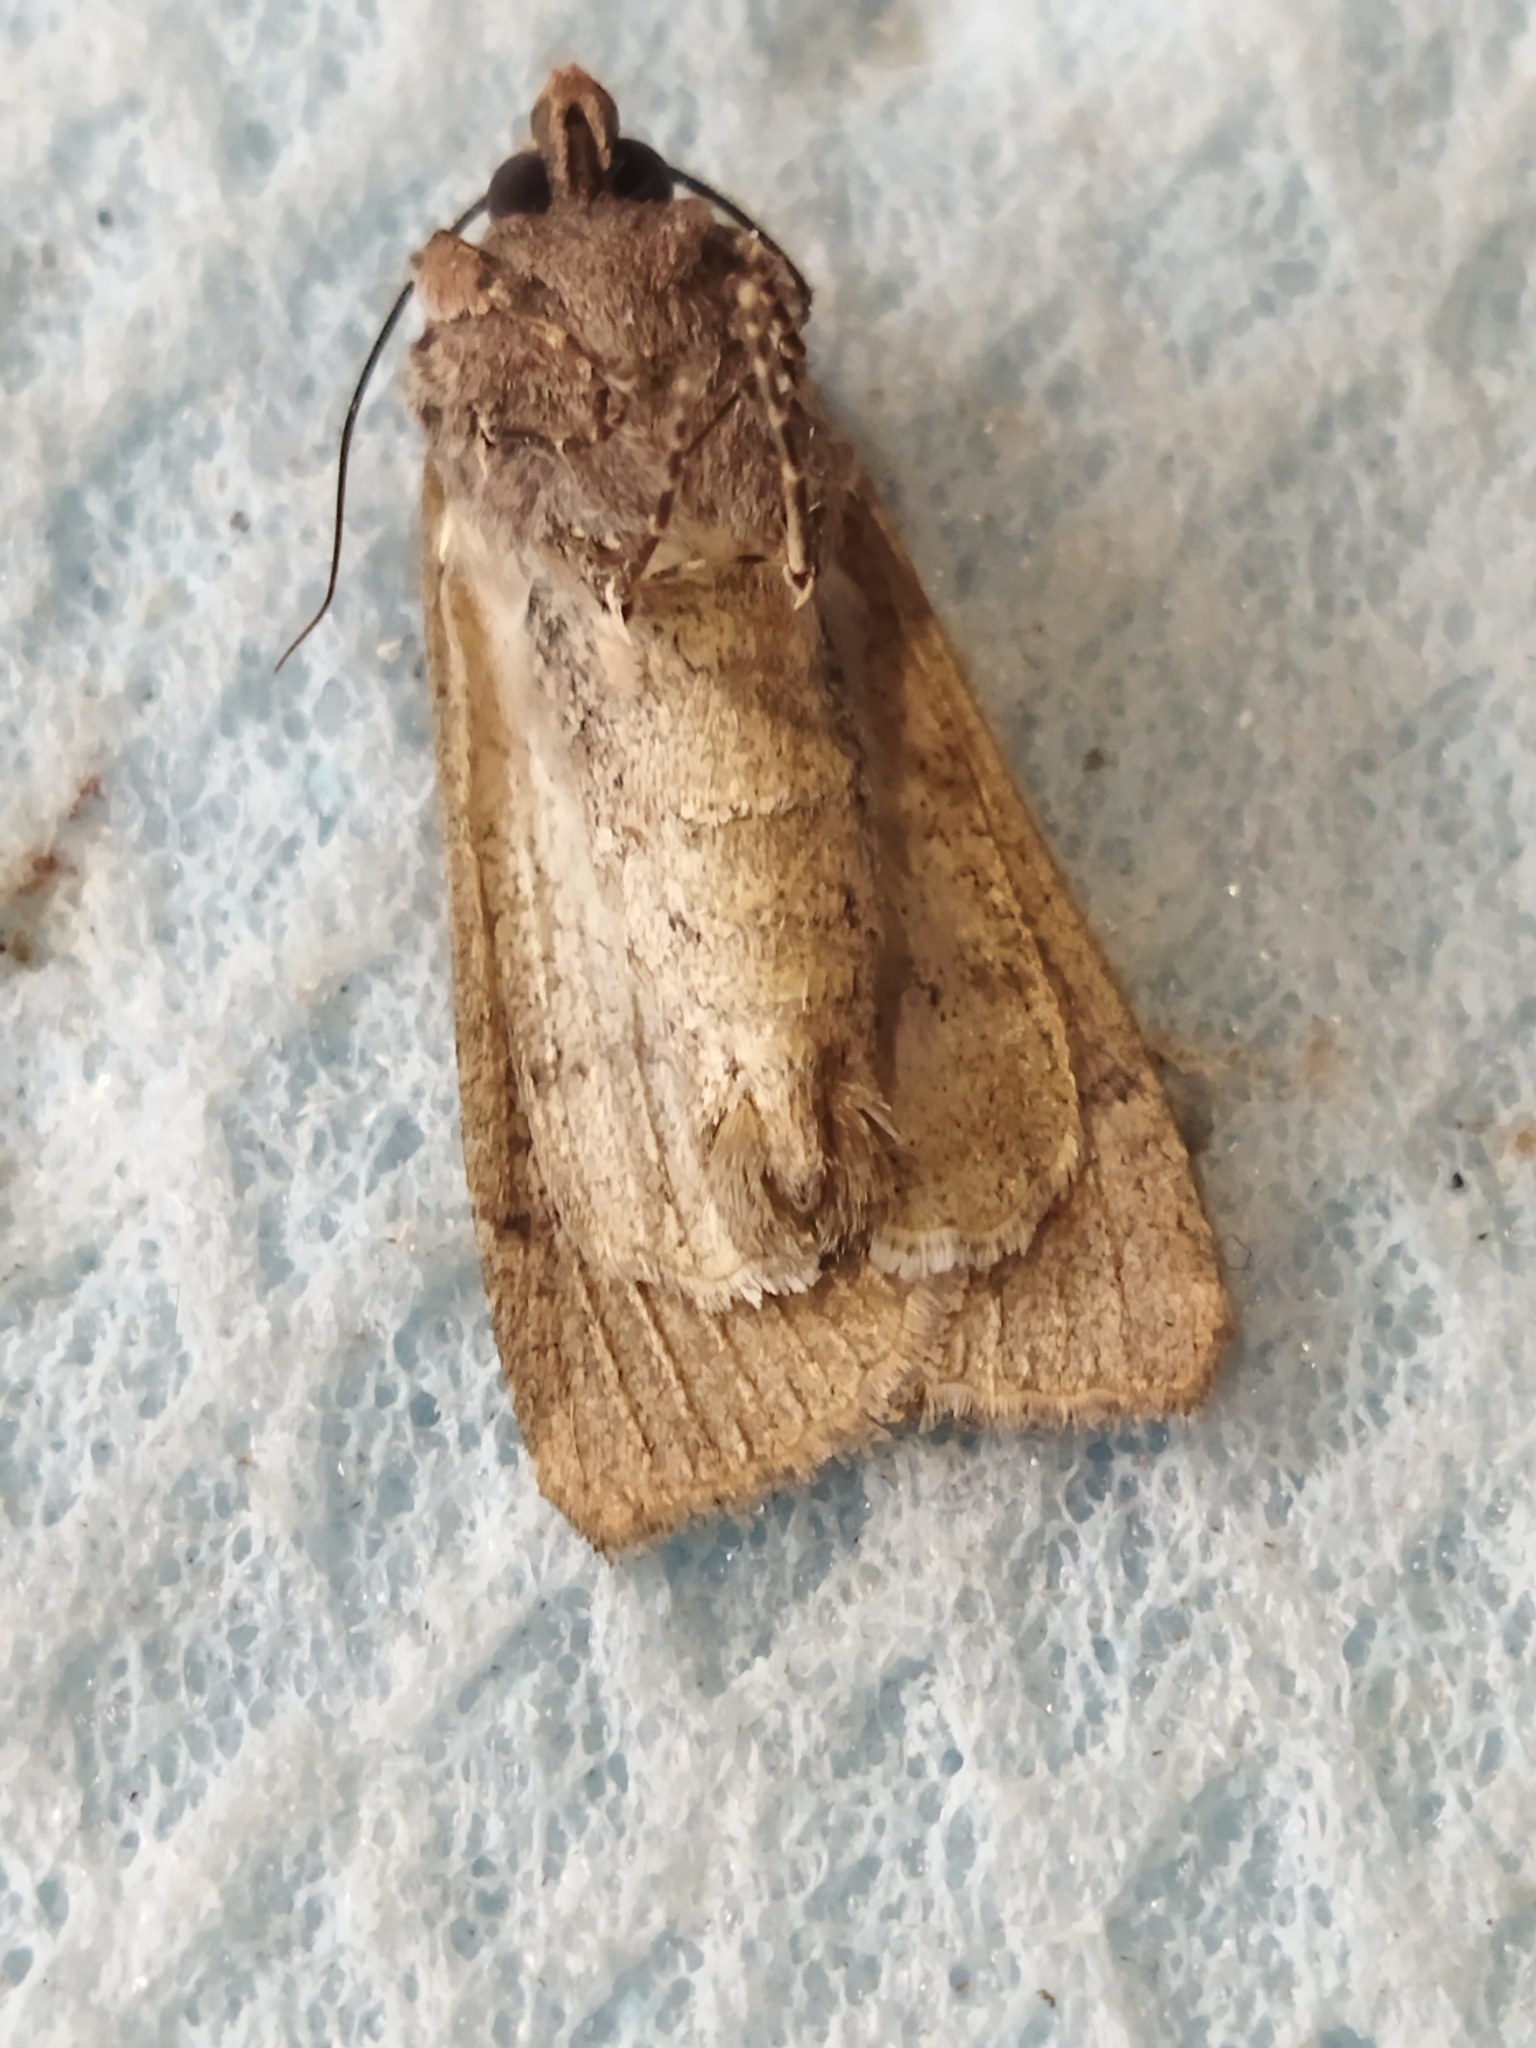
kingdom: Animalia
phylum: Arthropoda
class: Insecta
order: Lepidoptera
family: Noctuidae
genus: Peridroma
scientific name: Peridroma saucia
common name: Pearly underwing
